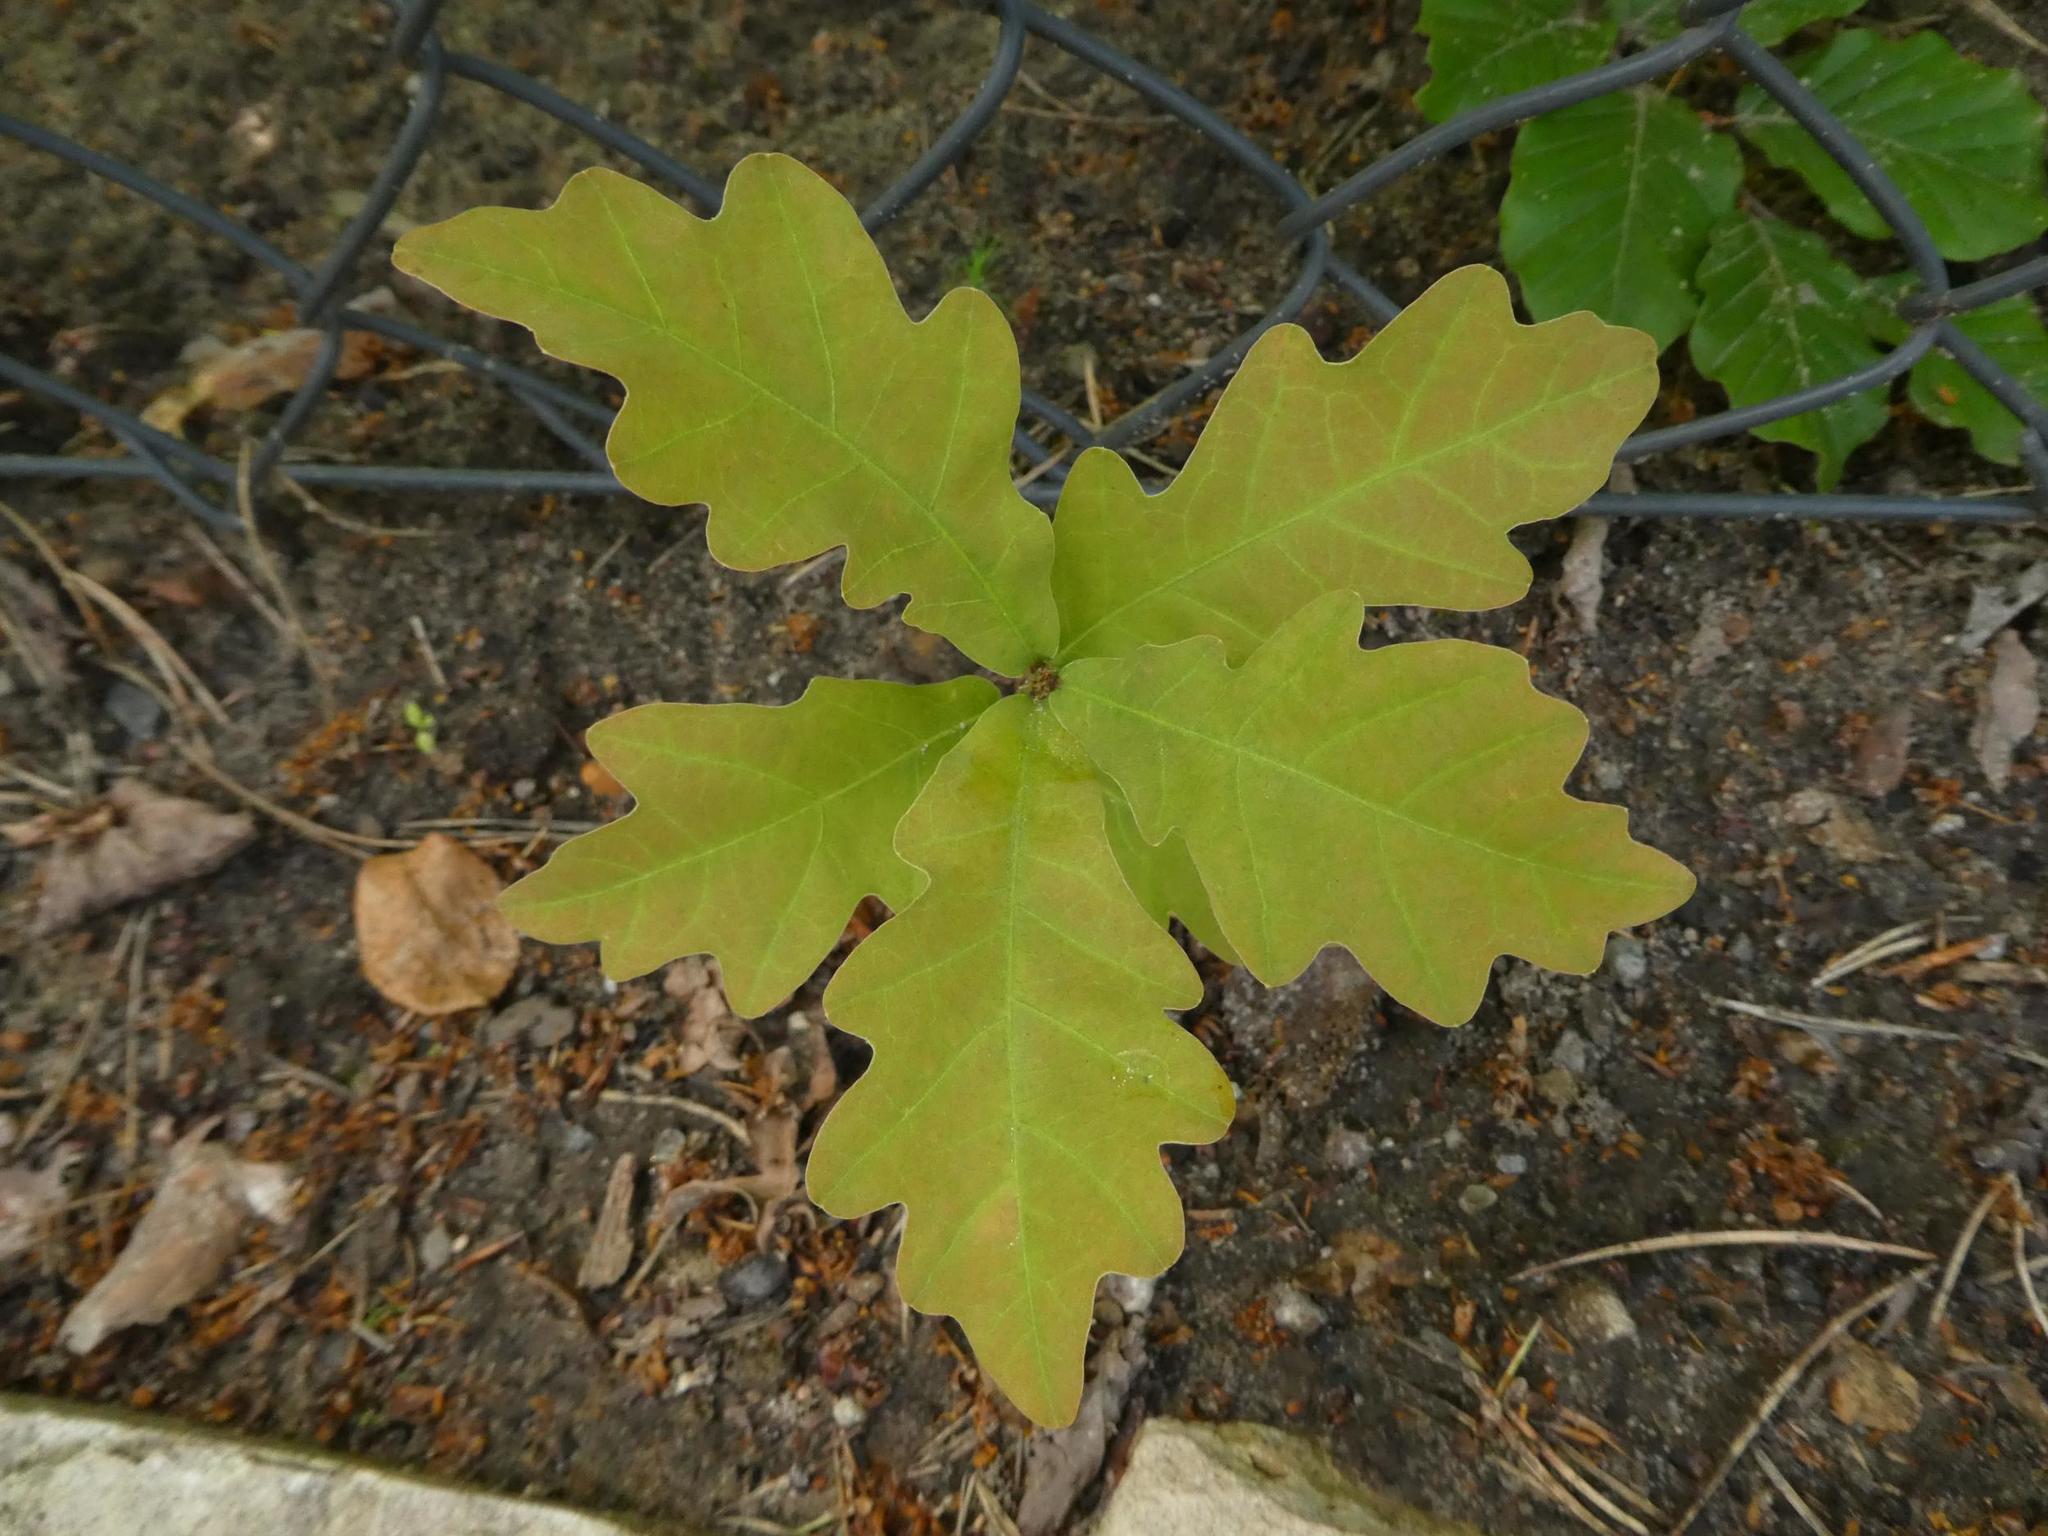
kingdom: Plantae
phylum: Tracheophyta
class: Magnoliopsida
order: Fagales
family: Fagaceae
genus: Quercus
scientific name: Quercus robur
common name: Pedunculate oak
